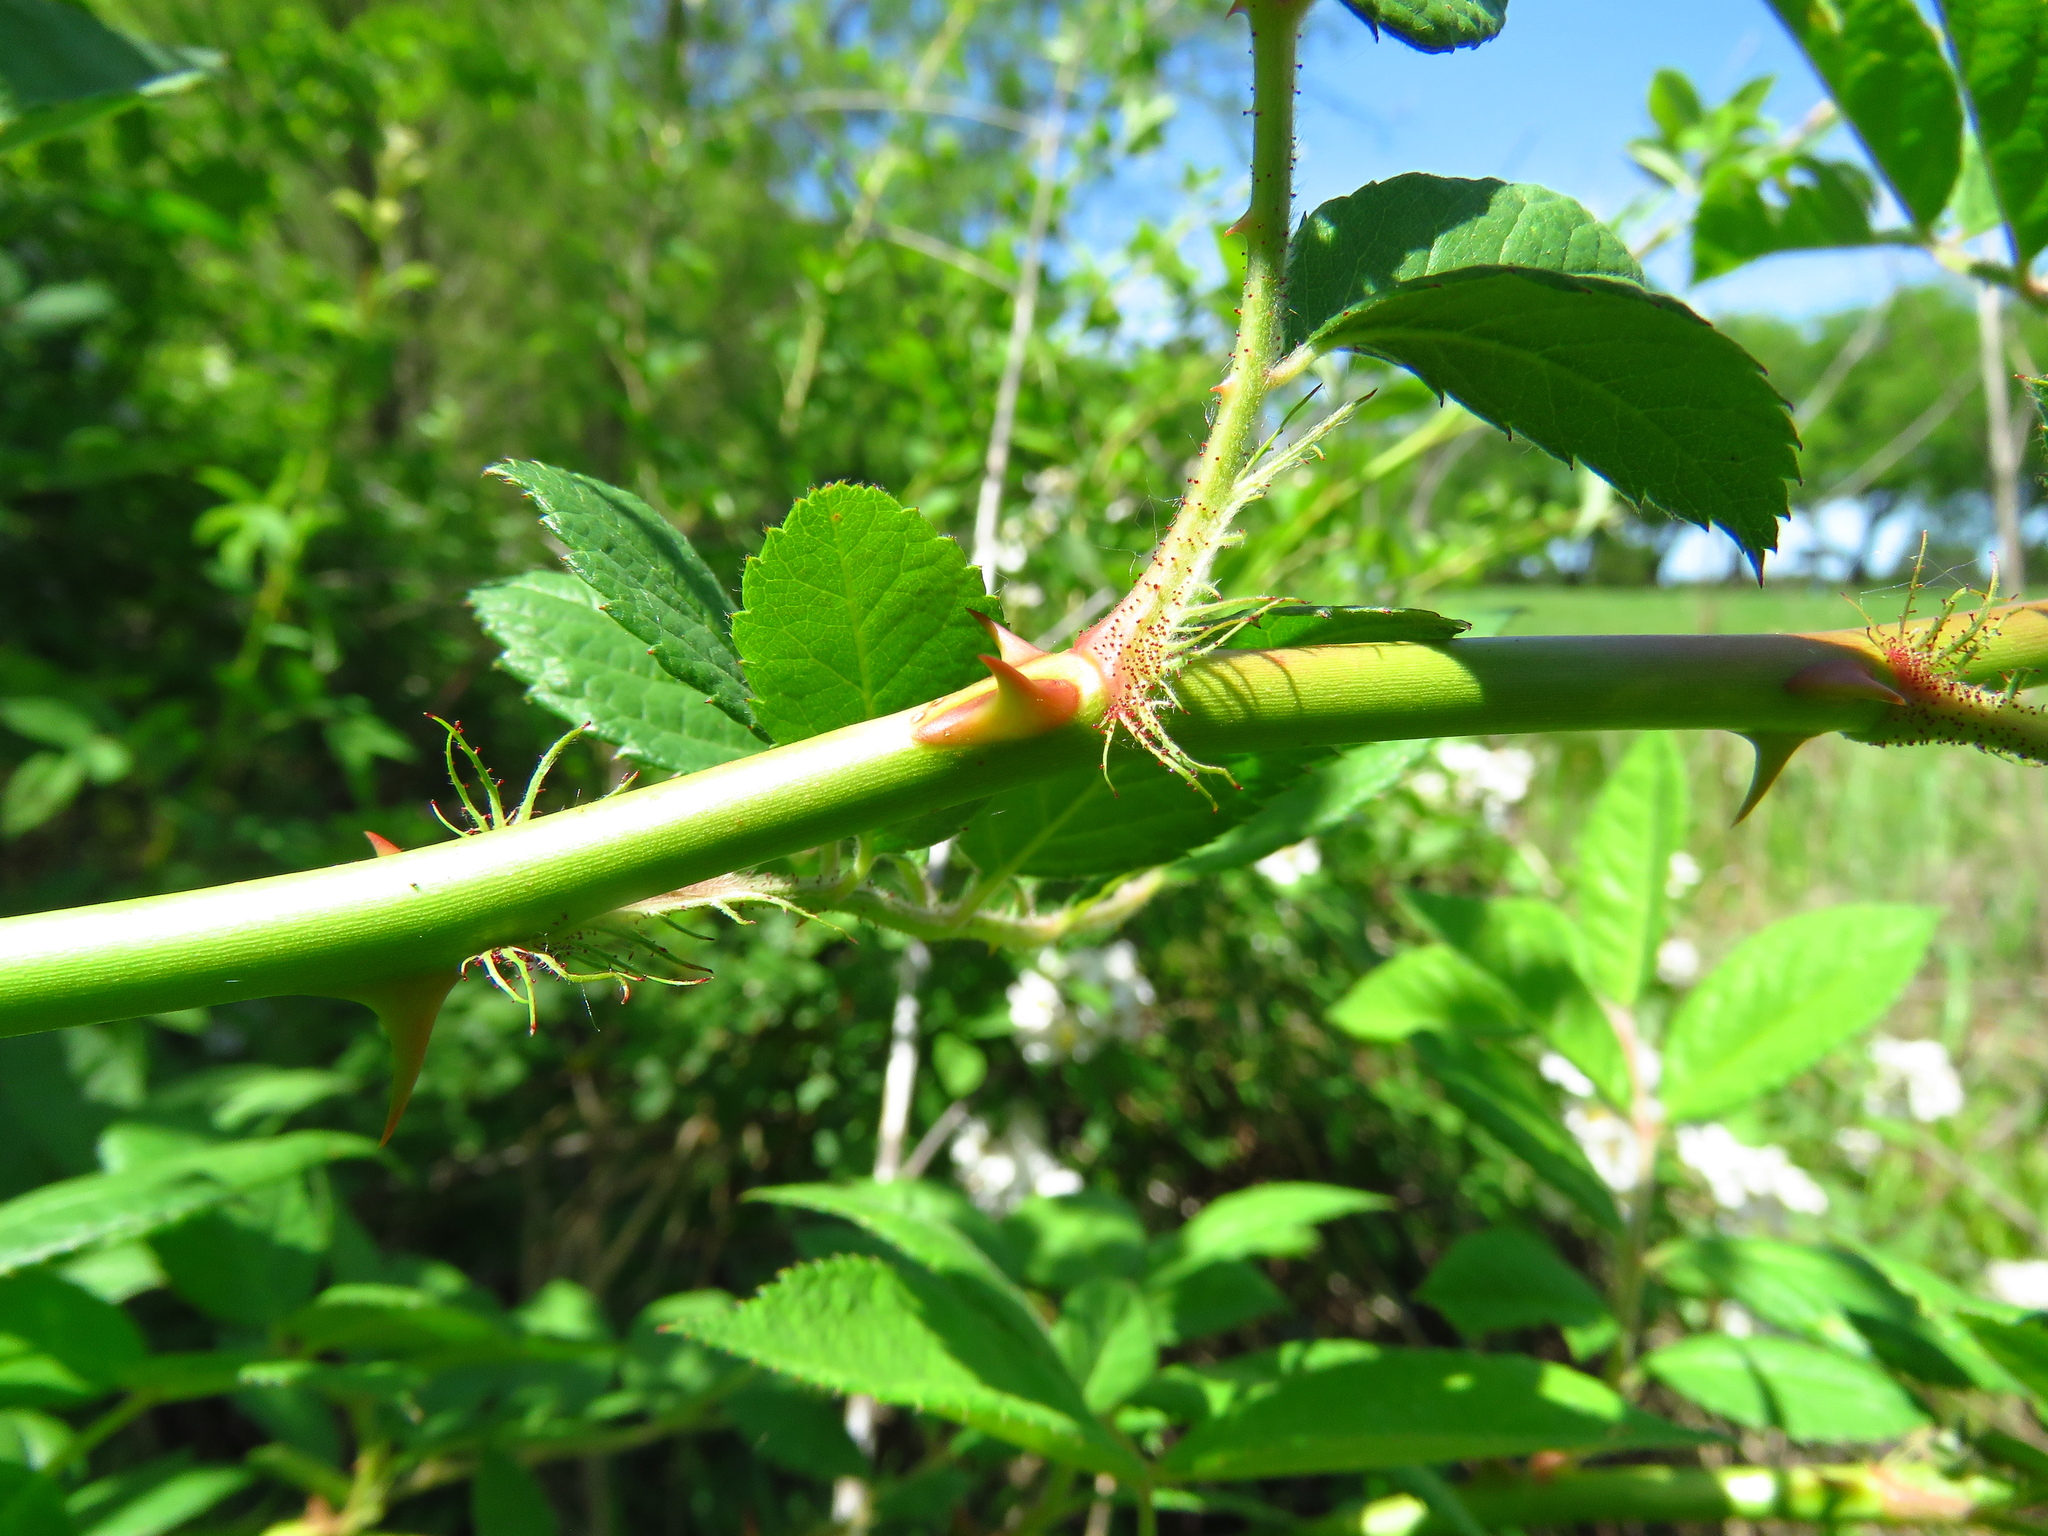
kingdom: Plantae
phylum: Tracheophyta
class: Magnoliopsida
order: Rosales
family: Rosaceae
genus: Rosa
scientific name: Rosa multiflora
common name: Multiflora rose
